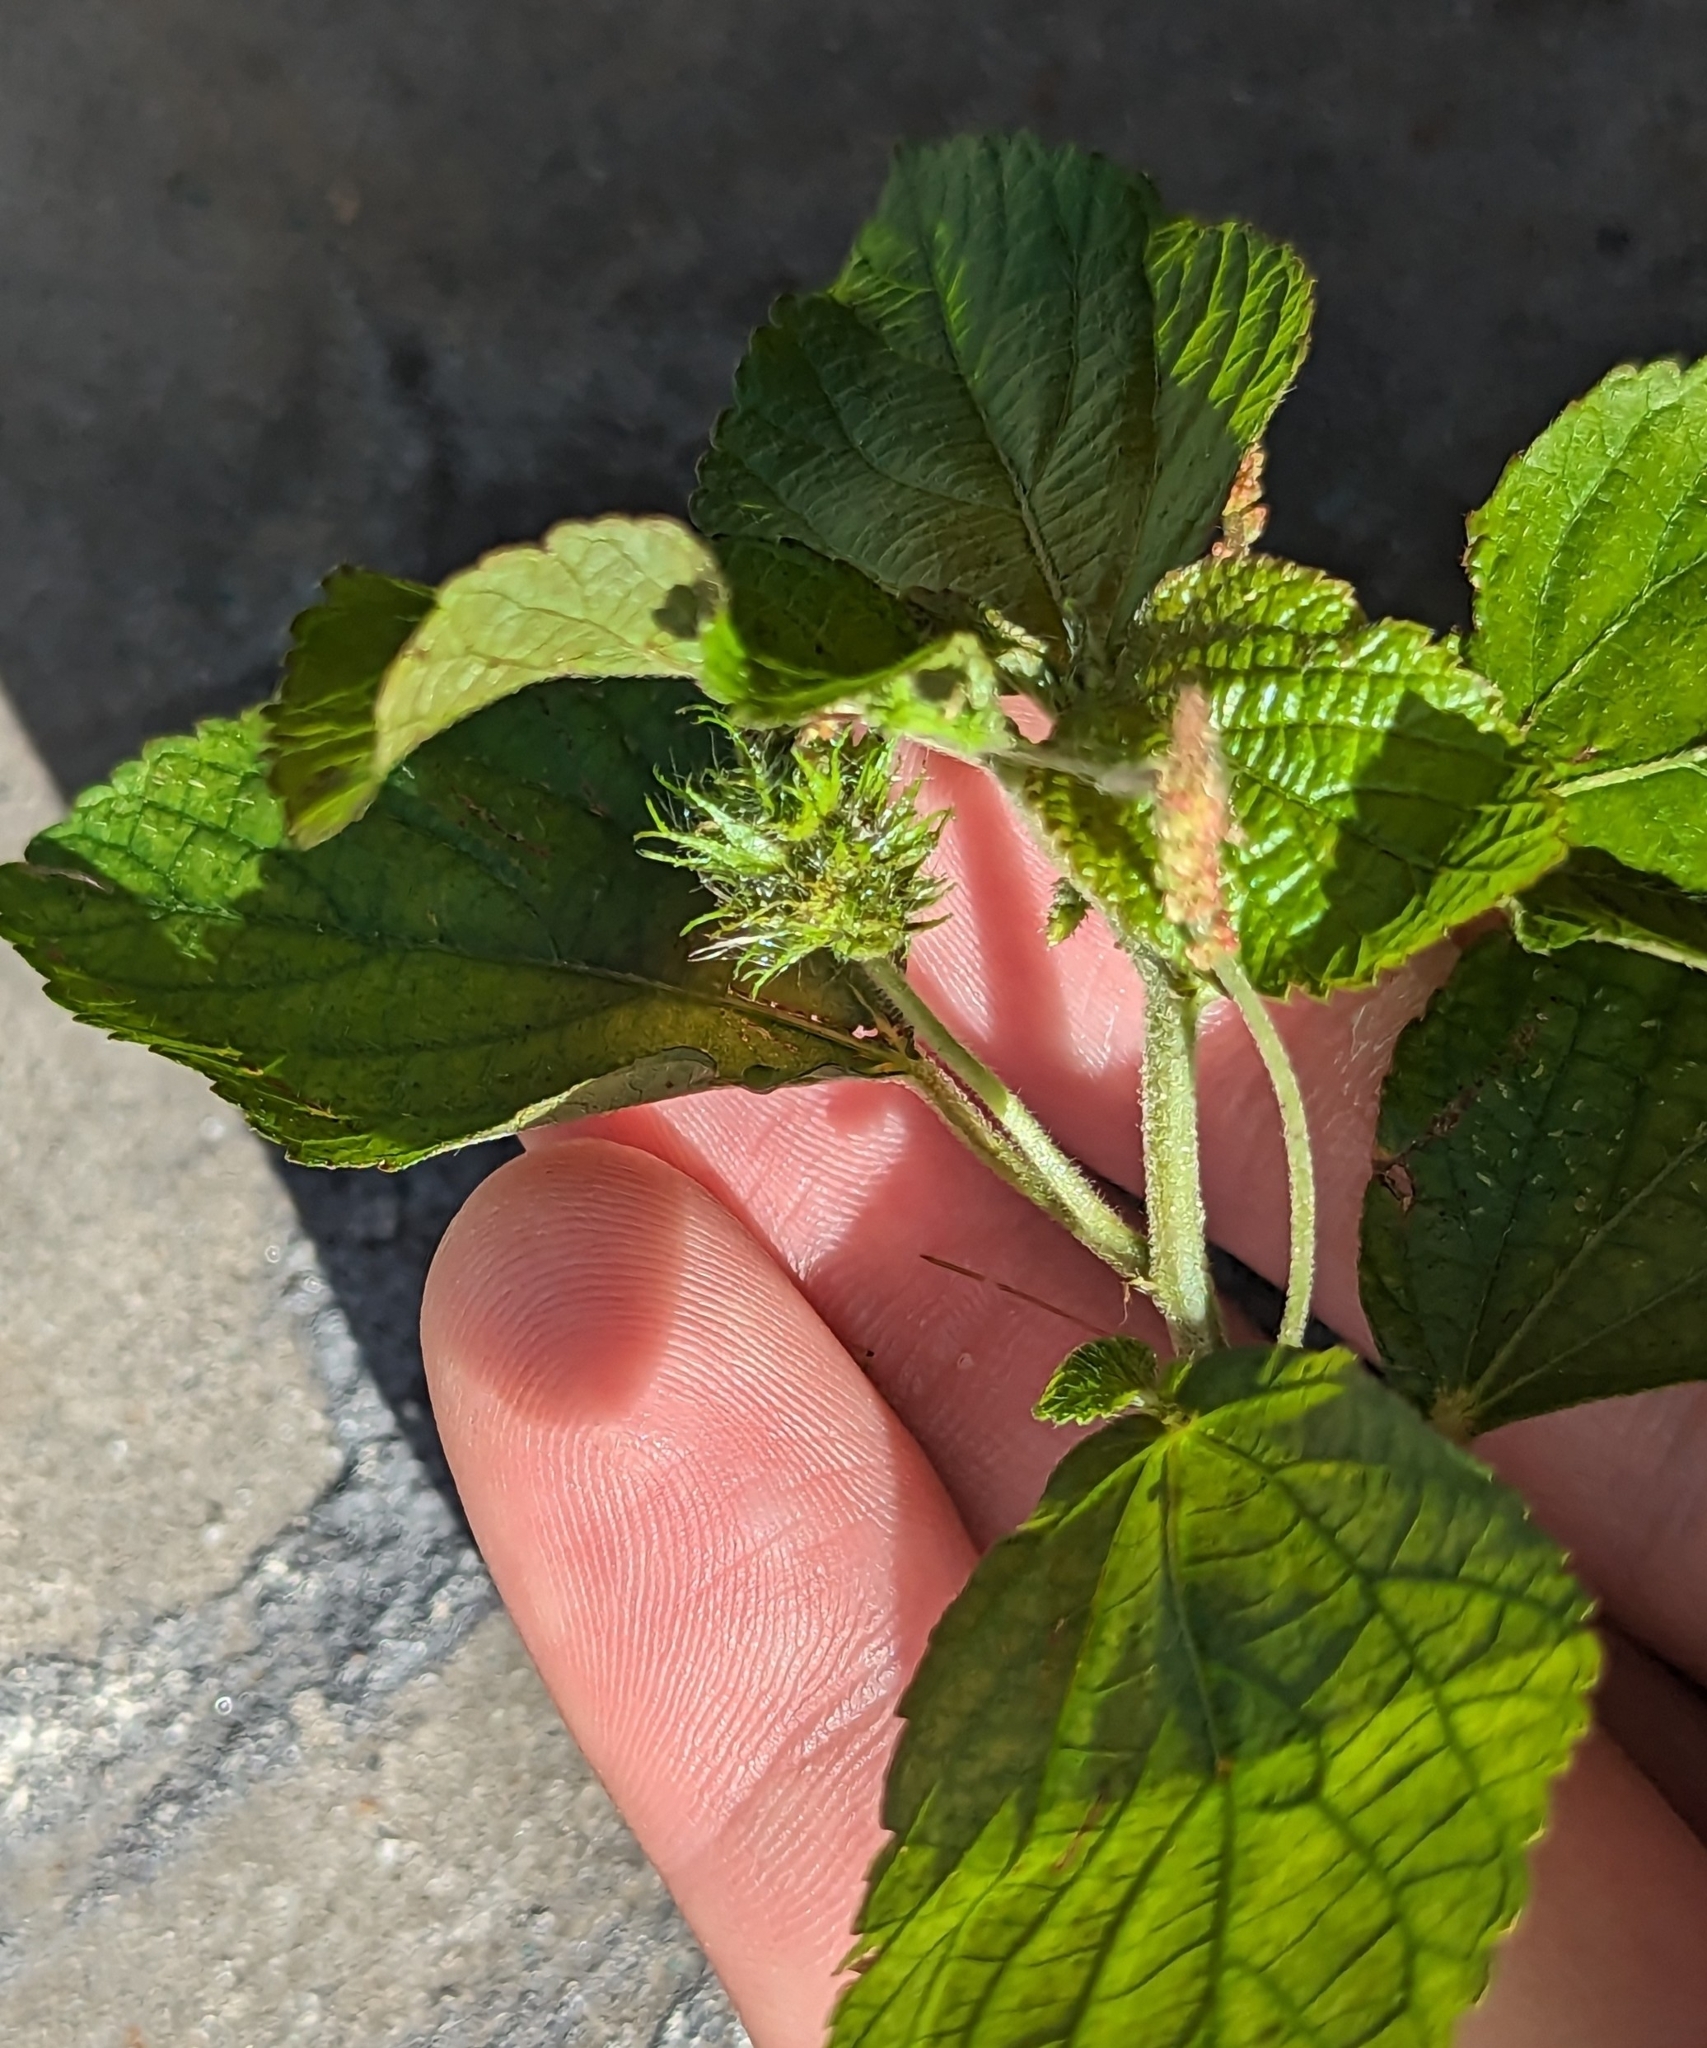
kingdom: Plantae
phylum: Tracheophyta
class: Magnoliopsida
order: Malpighiales
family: Euphorbiaceae
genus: Acalypha
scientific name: Acalypha arvensis
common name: Field copperleaf
